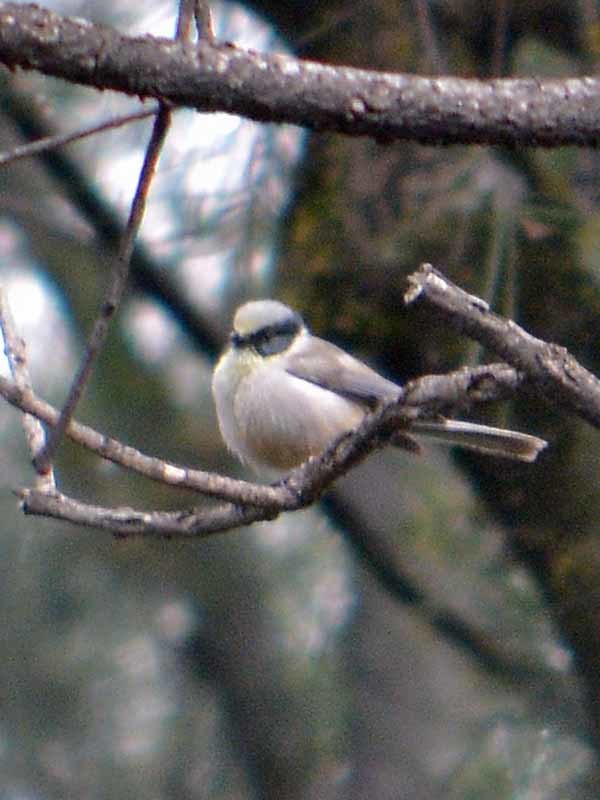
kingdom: Animalia
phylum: Chordata
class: Aves
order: Passeriformes
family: Aegithalidae
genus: Psaltriparus
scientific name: Psaltriparus minimus
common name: American bushtit
